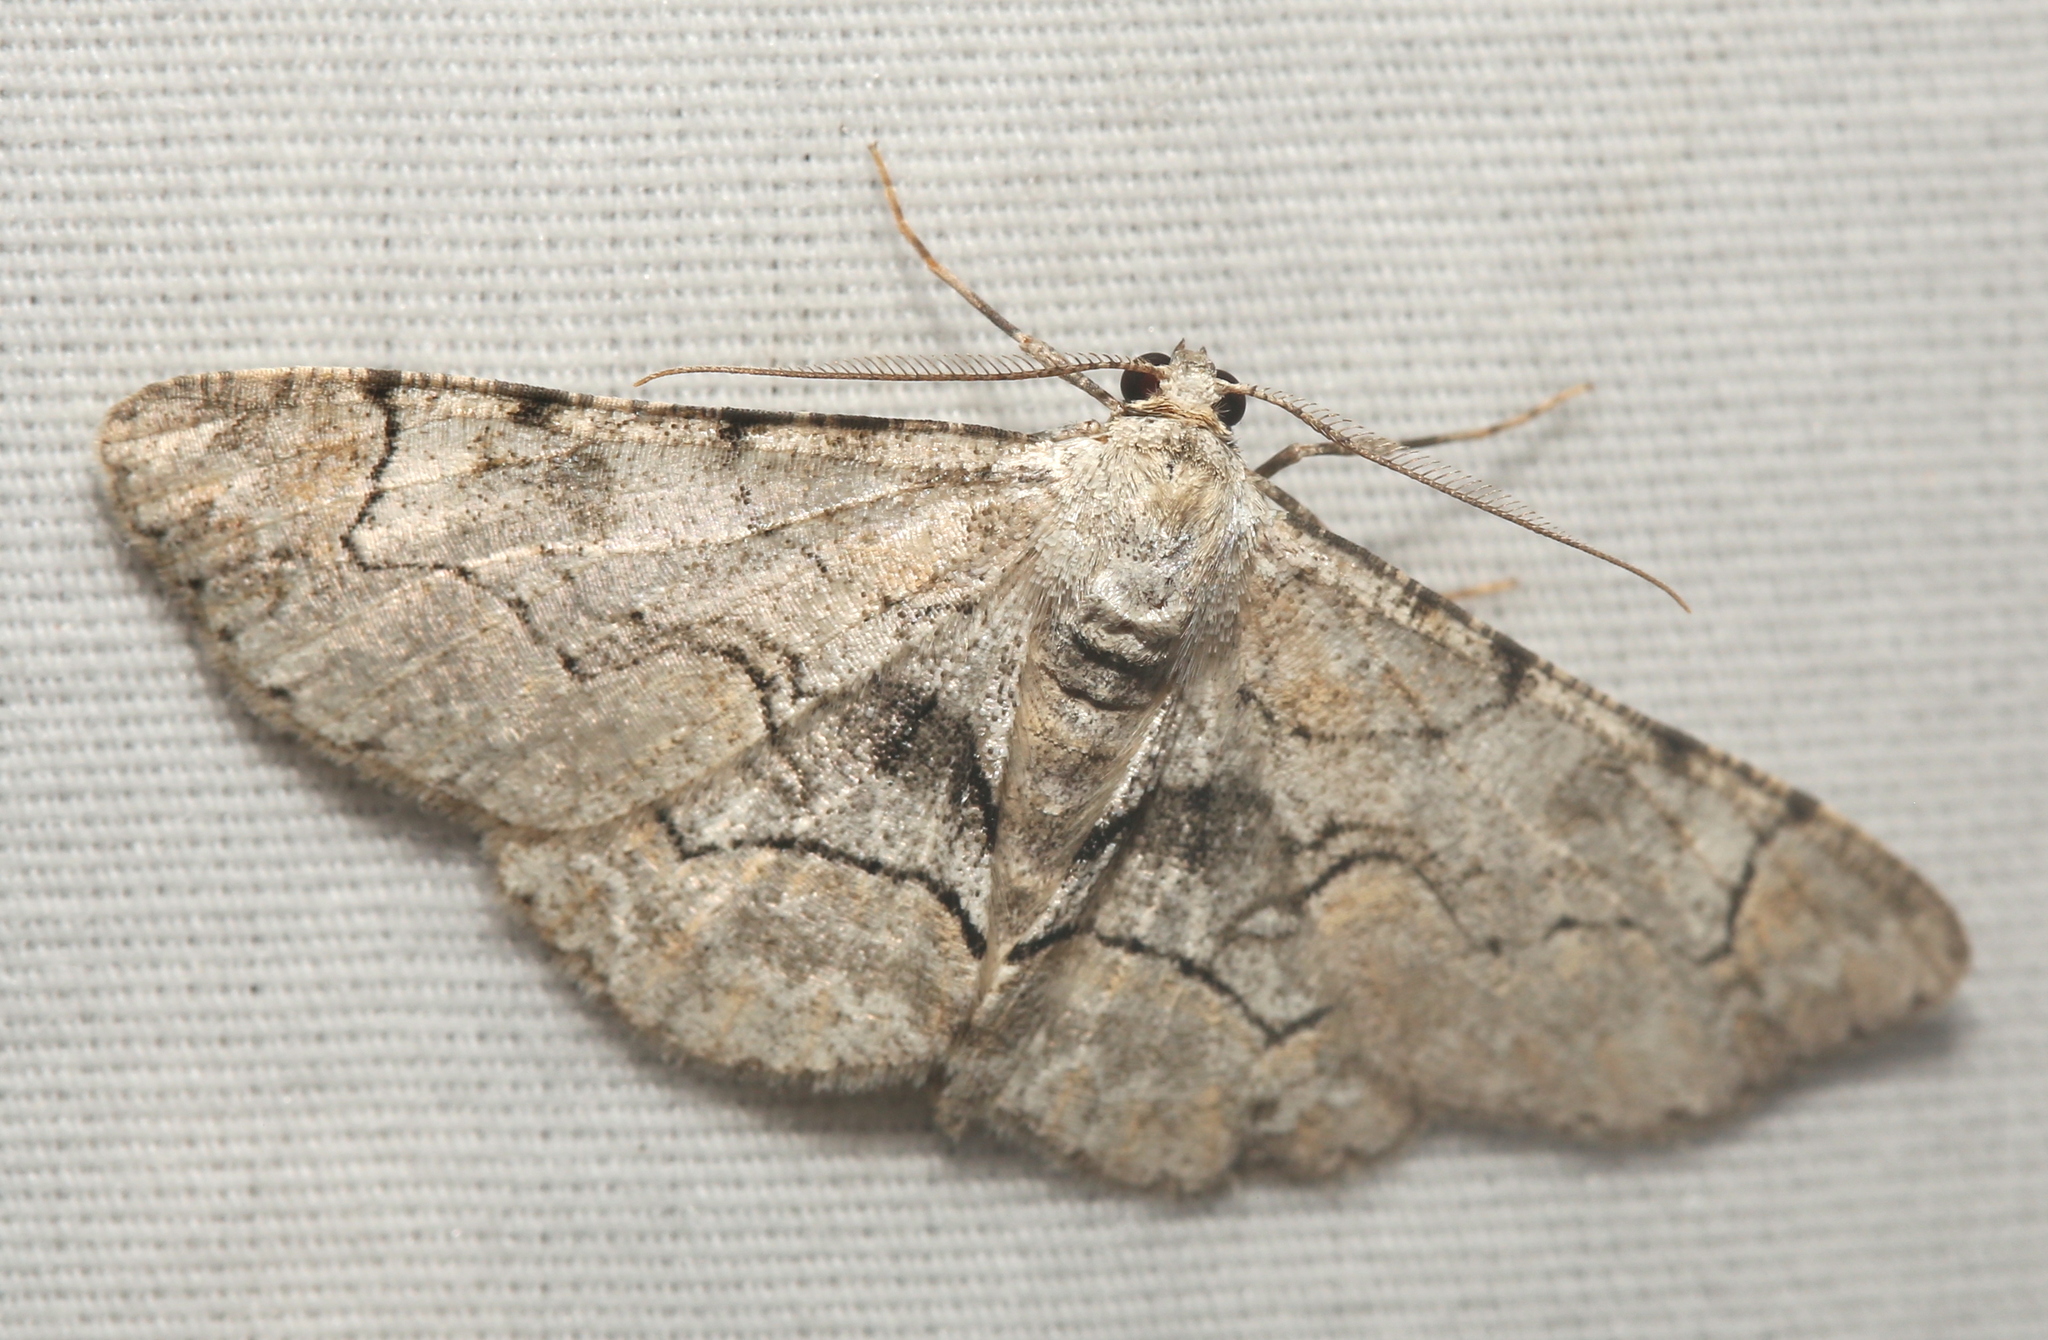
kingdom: Animalia
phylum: Arthropoda
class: Insecta
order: Lepidoptera
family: Geometridae
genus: Iridopsis
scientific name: Iridopsis larvaria
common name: Bent-line gray
